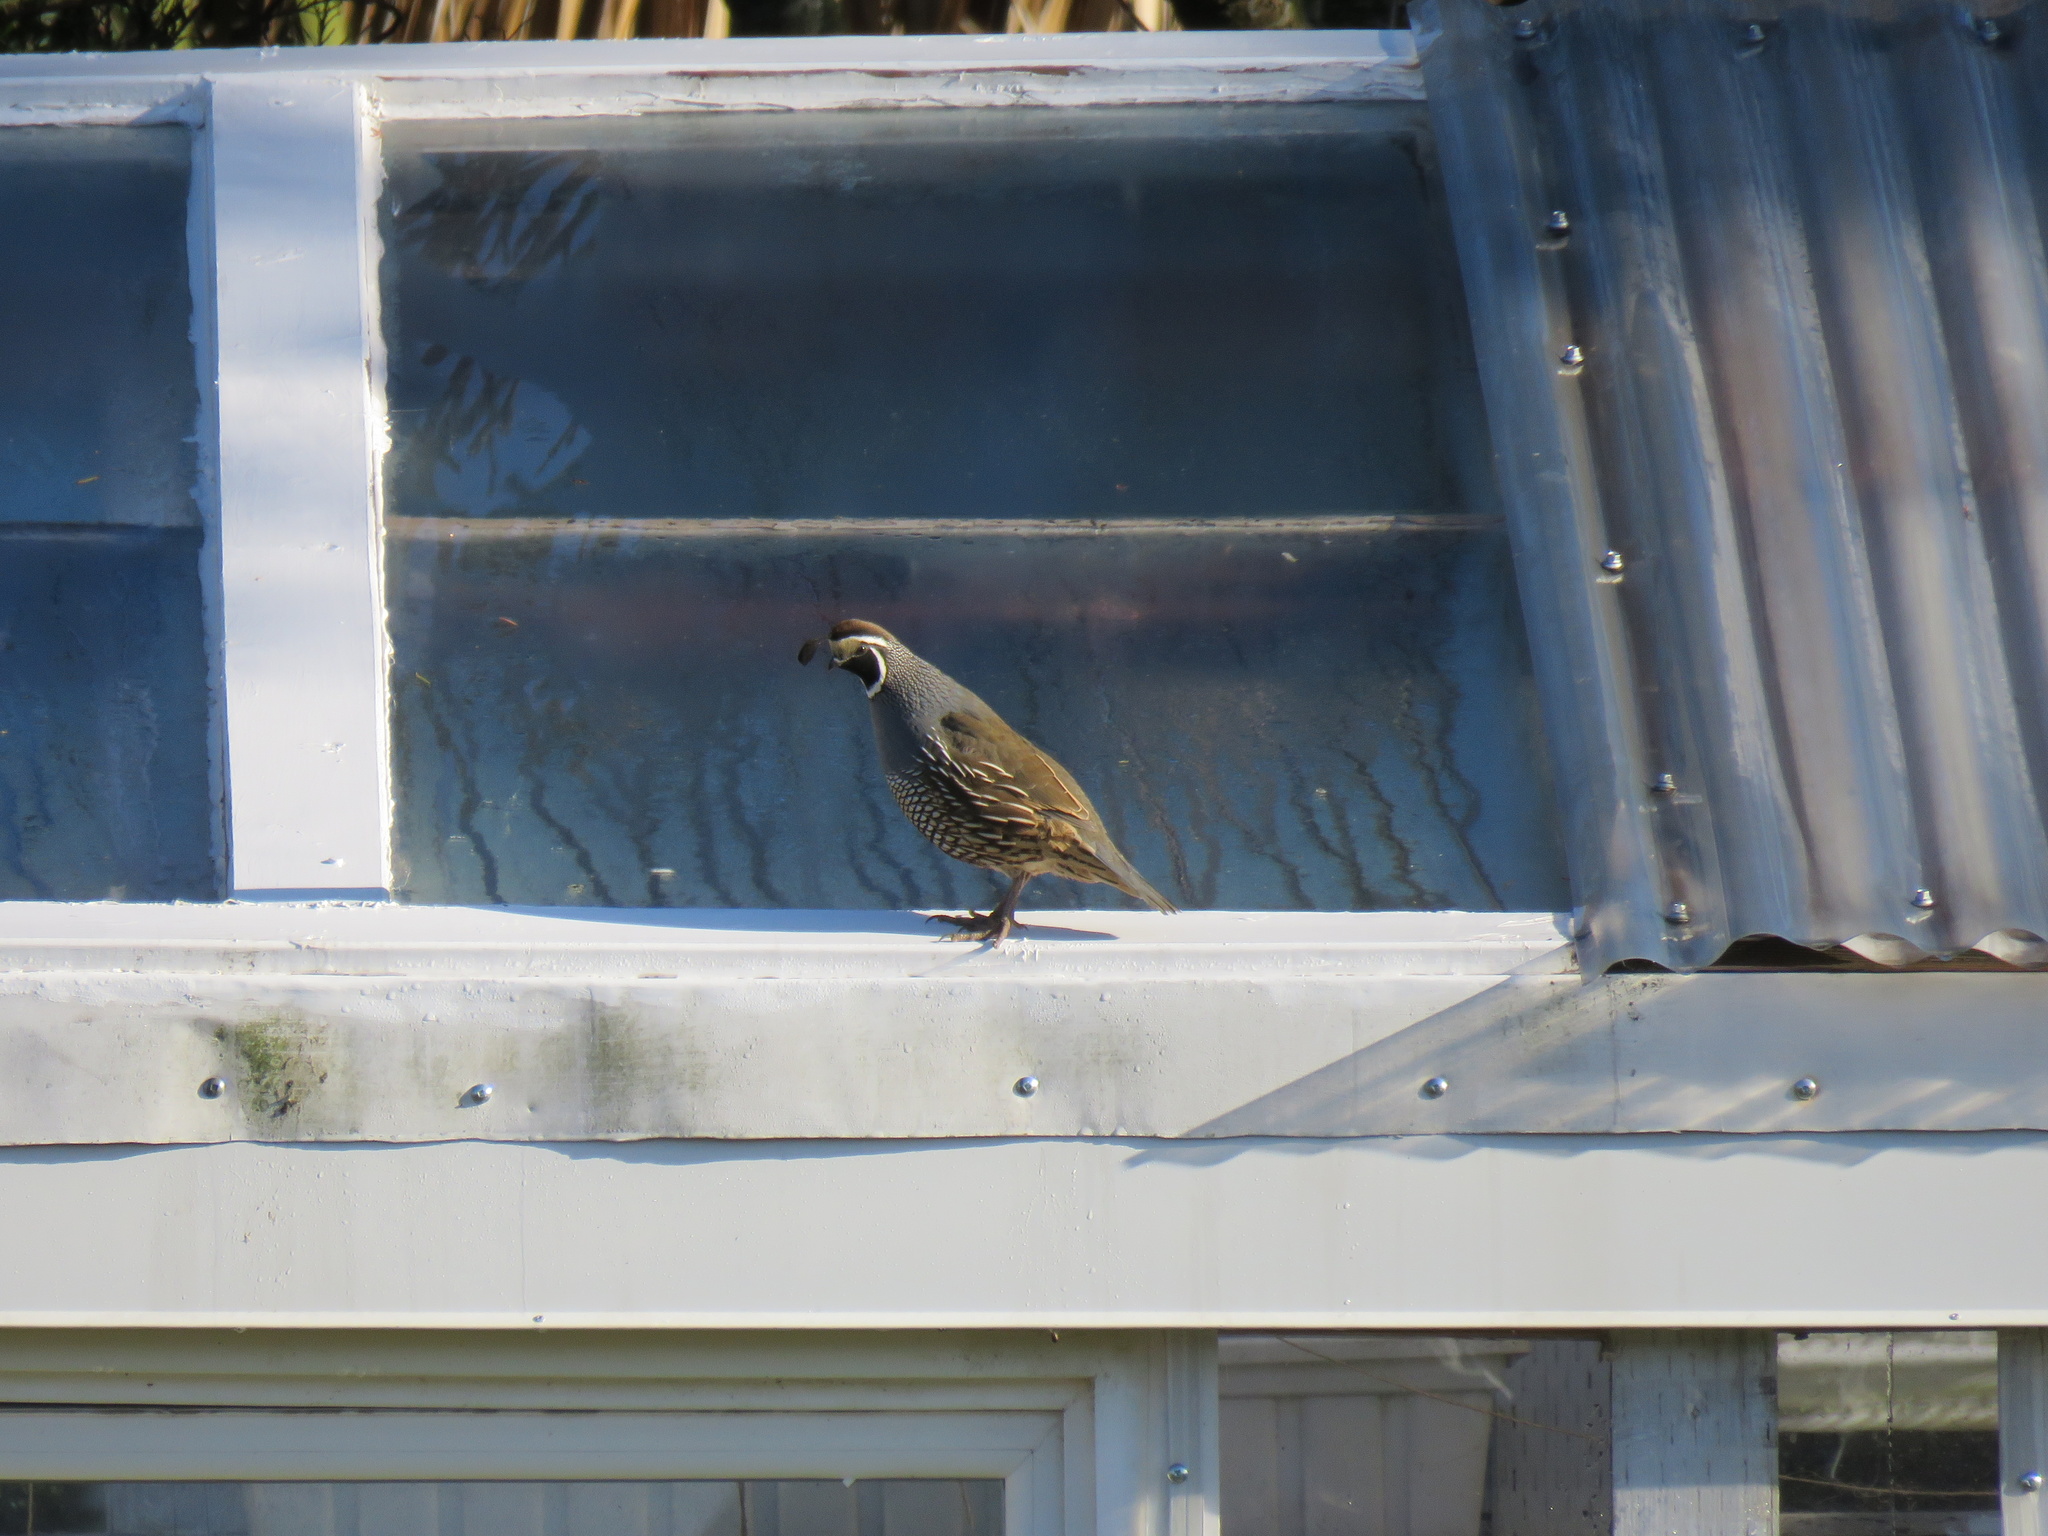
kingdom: Animalia
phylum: Chordata
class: Aves
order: Galliformes
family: Odontophoridae
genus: Callipepla
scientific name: Callipepla californica
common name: California quail
